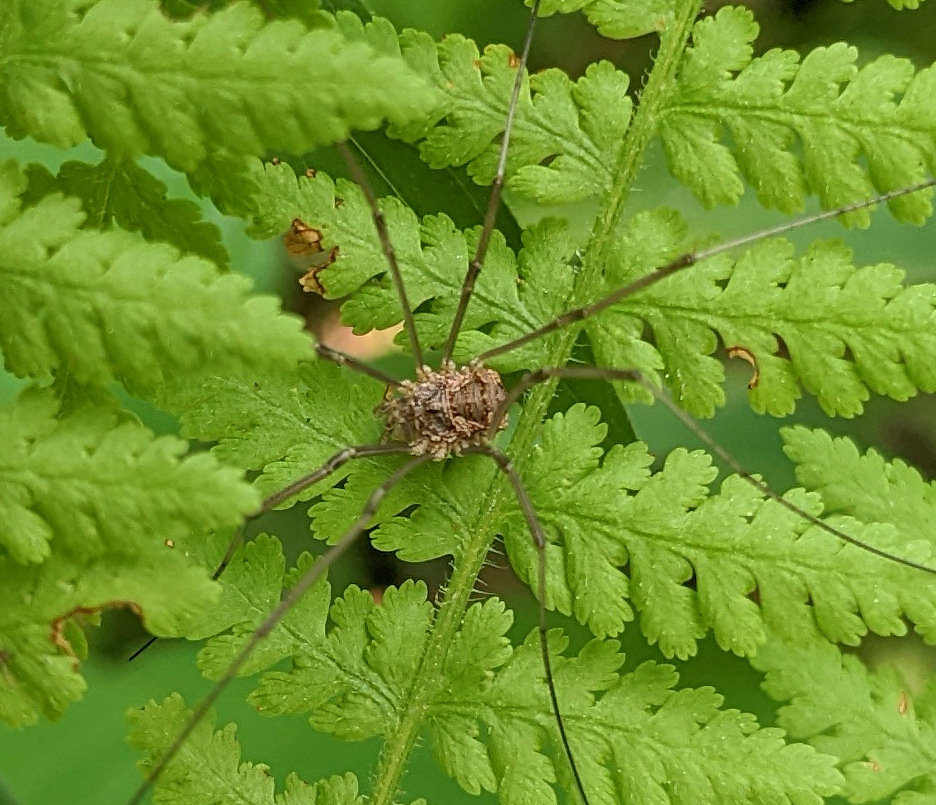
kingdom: Animalia
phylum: Arthropoda
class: Arachnida
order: Opiliones
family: Phalangiidae
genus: Phalangium
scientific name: Phalangium opilio
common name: Daddy longleg
